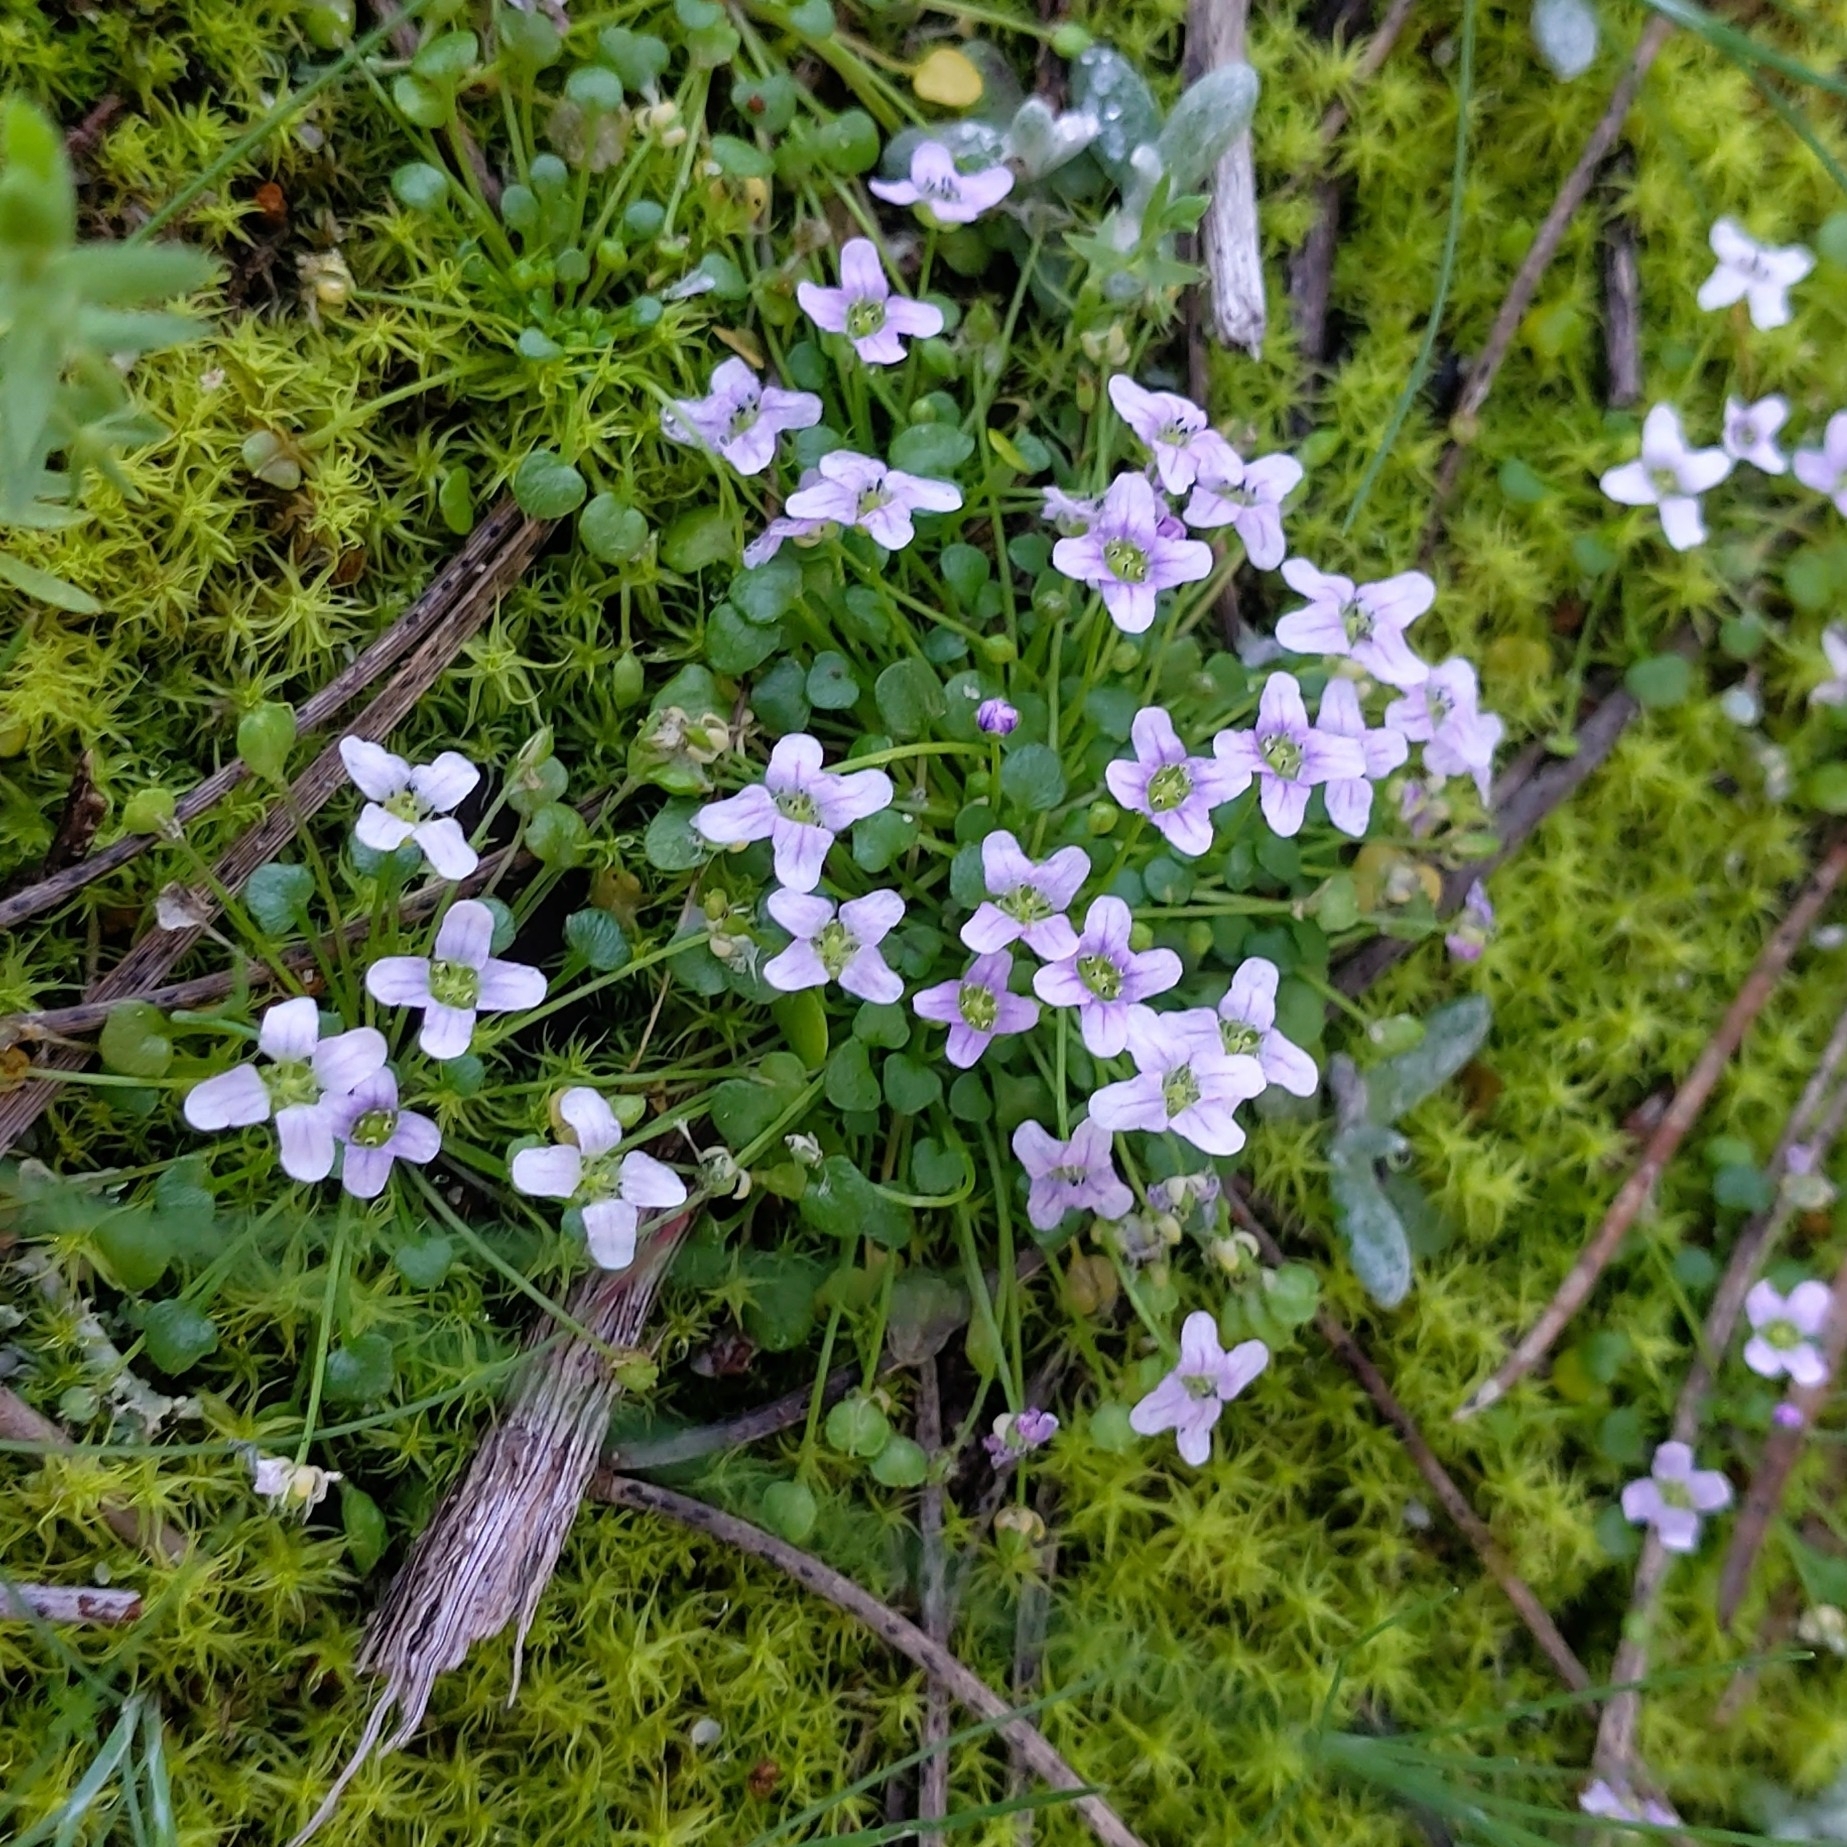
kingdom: Plantae
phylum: Tracheophyta
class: Magnoliopsida
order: Brassicales
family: Brassicaceae
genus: Ionopsidium
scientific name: Ionopsidium acaule
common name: False diamondflower
